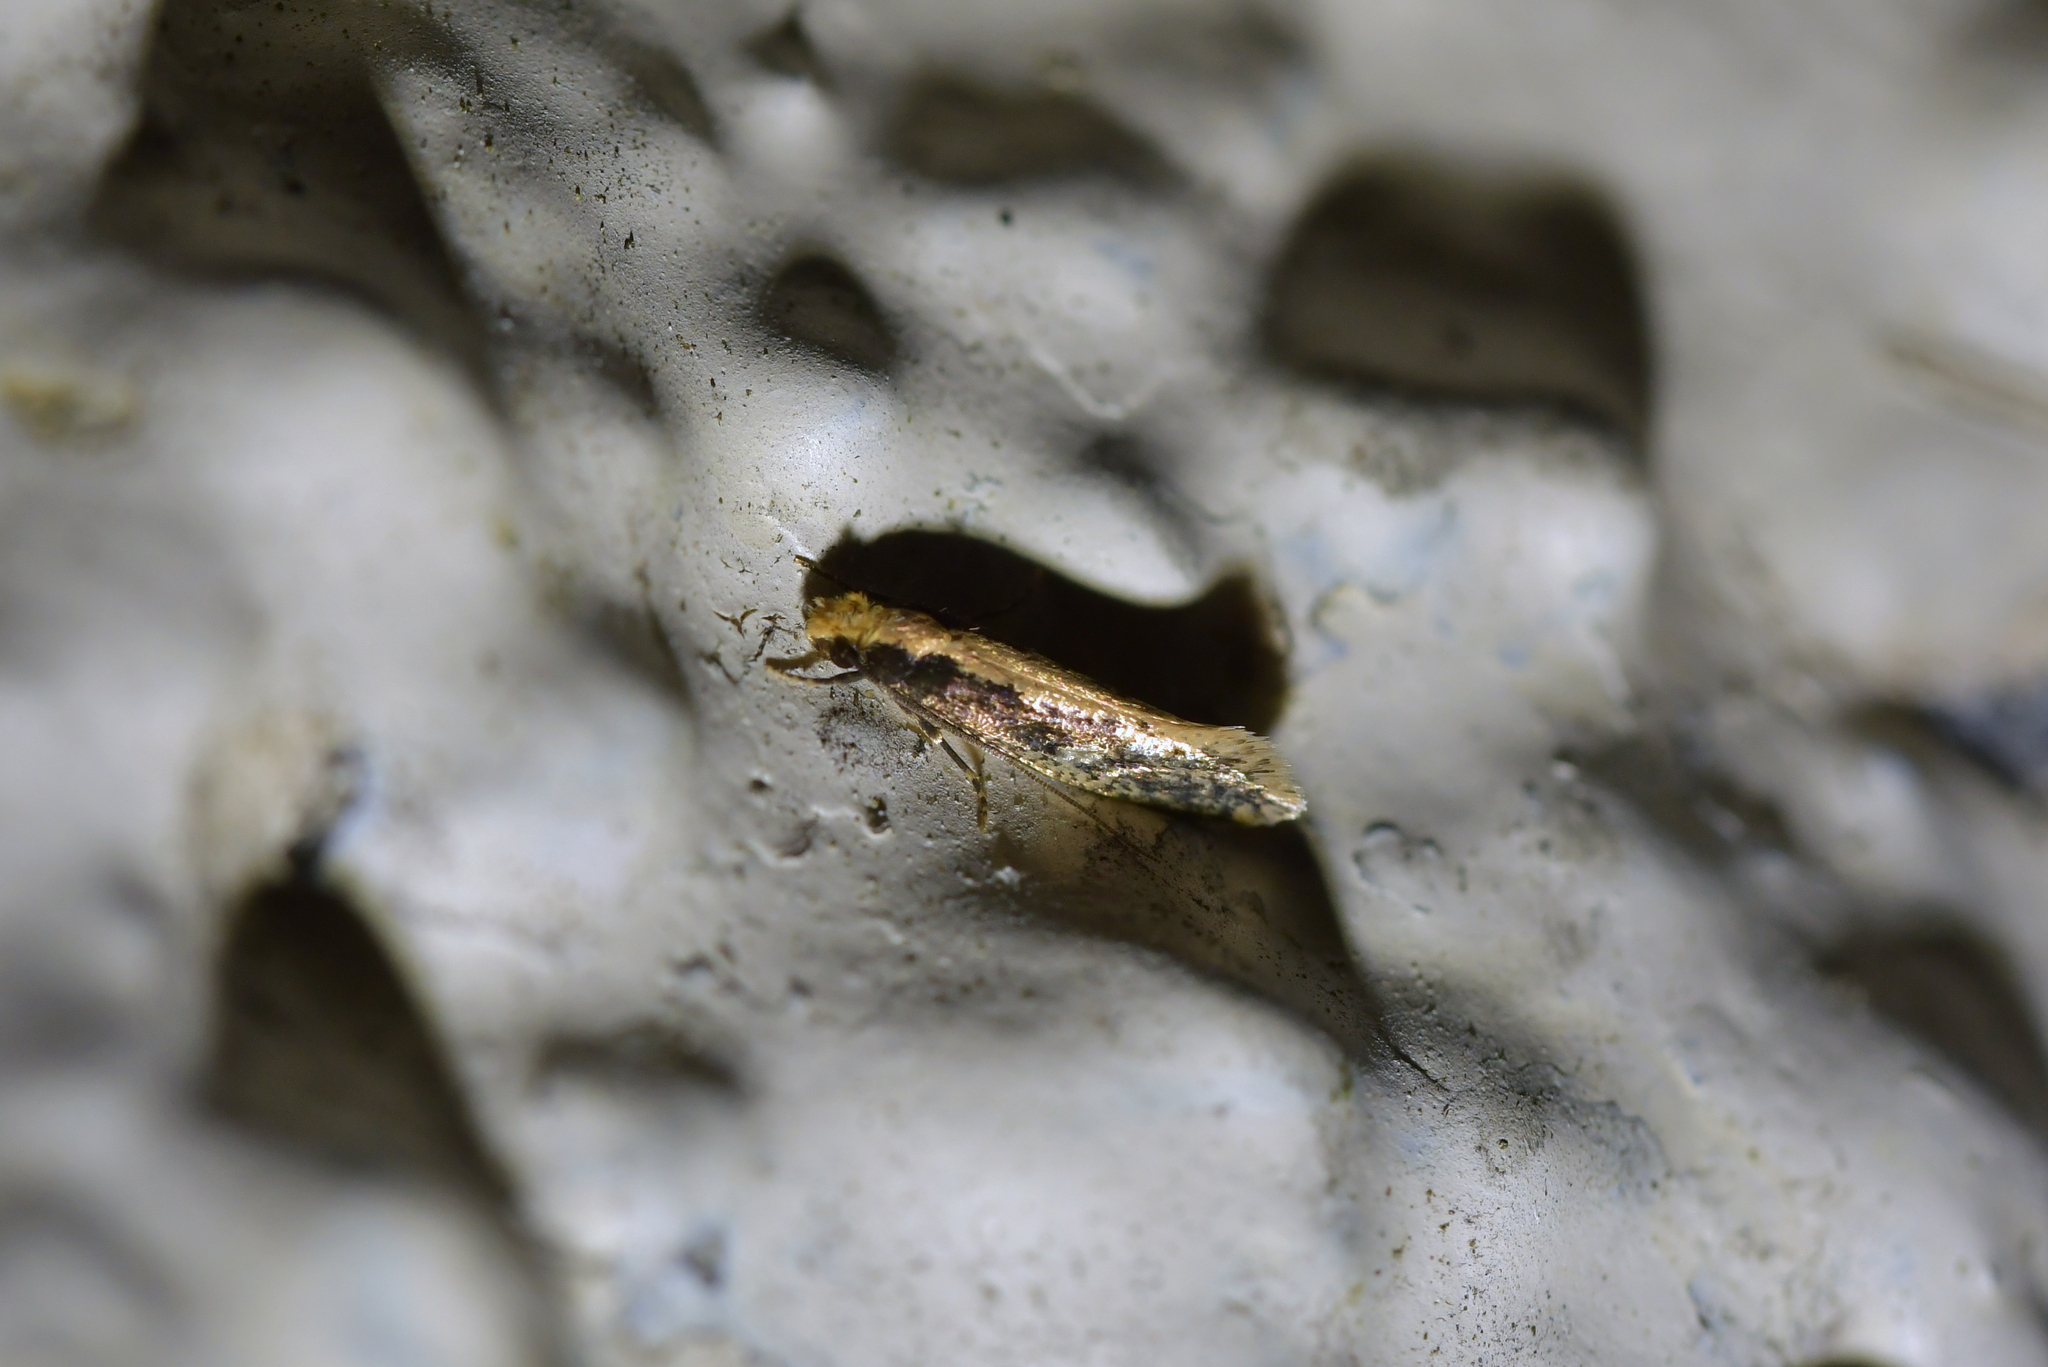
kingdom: Animalia
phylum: Arthropoda
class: Insecta
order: Lepidoptera
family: Tineidae
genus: Monopis
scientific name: Monopis crocicapitella
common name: Moth
